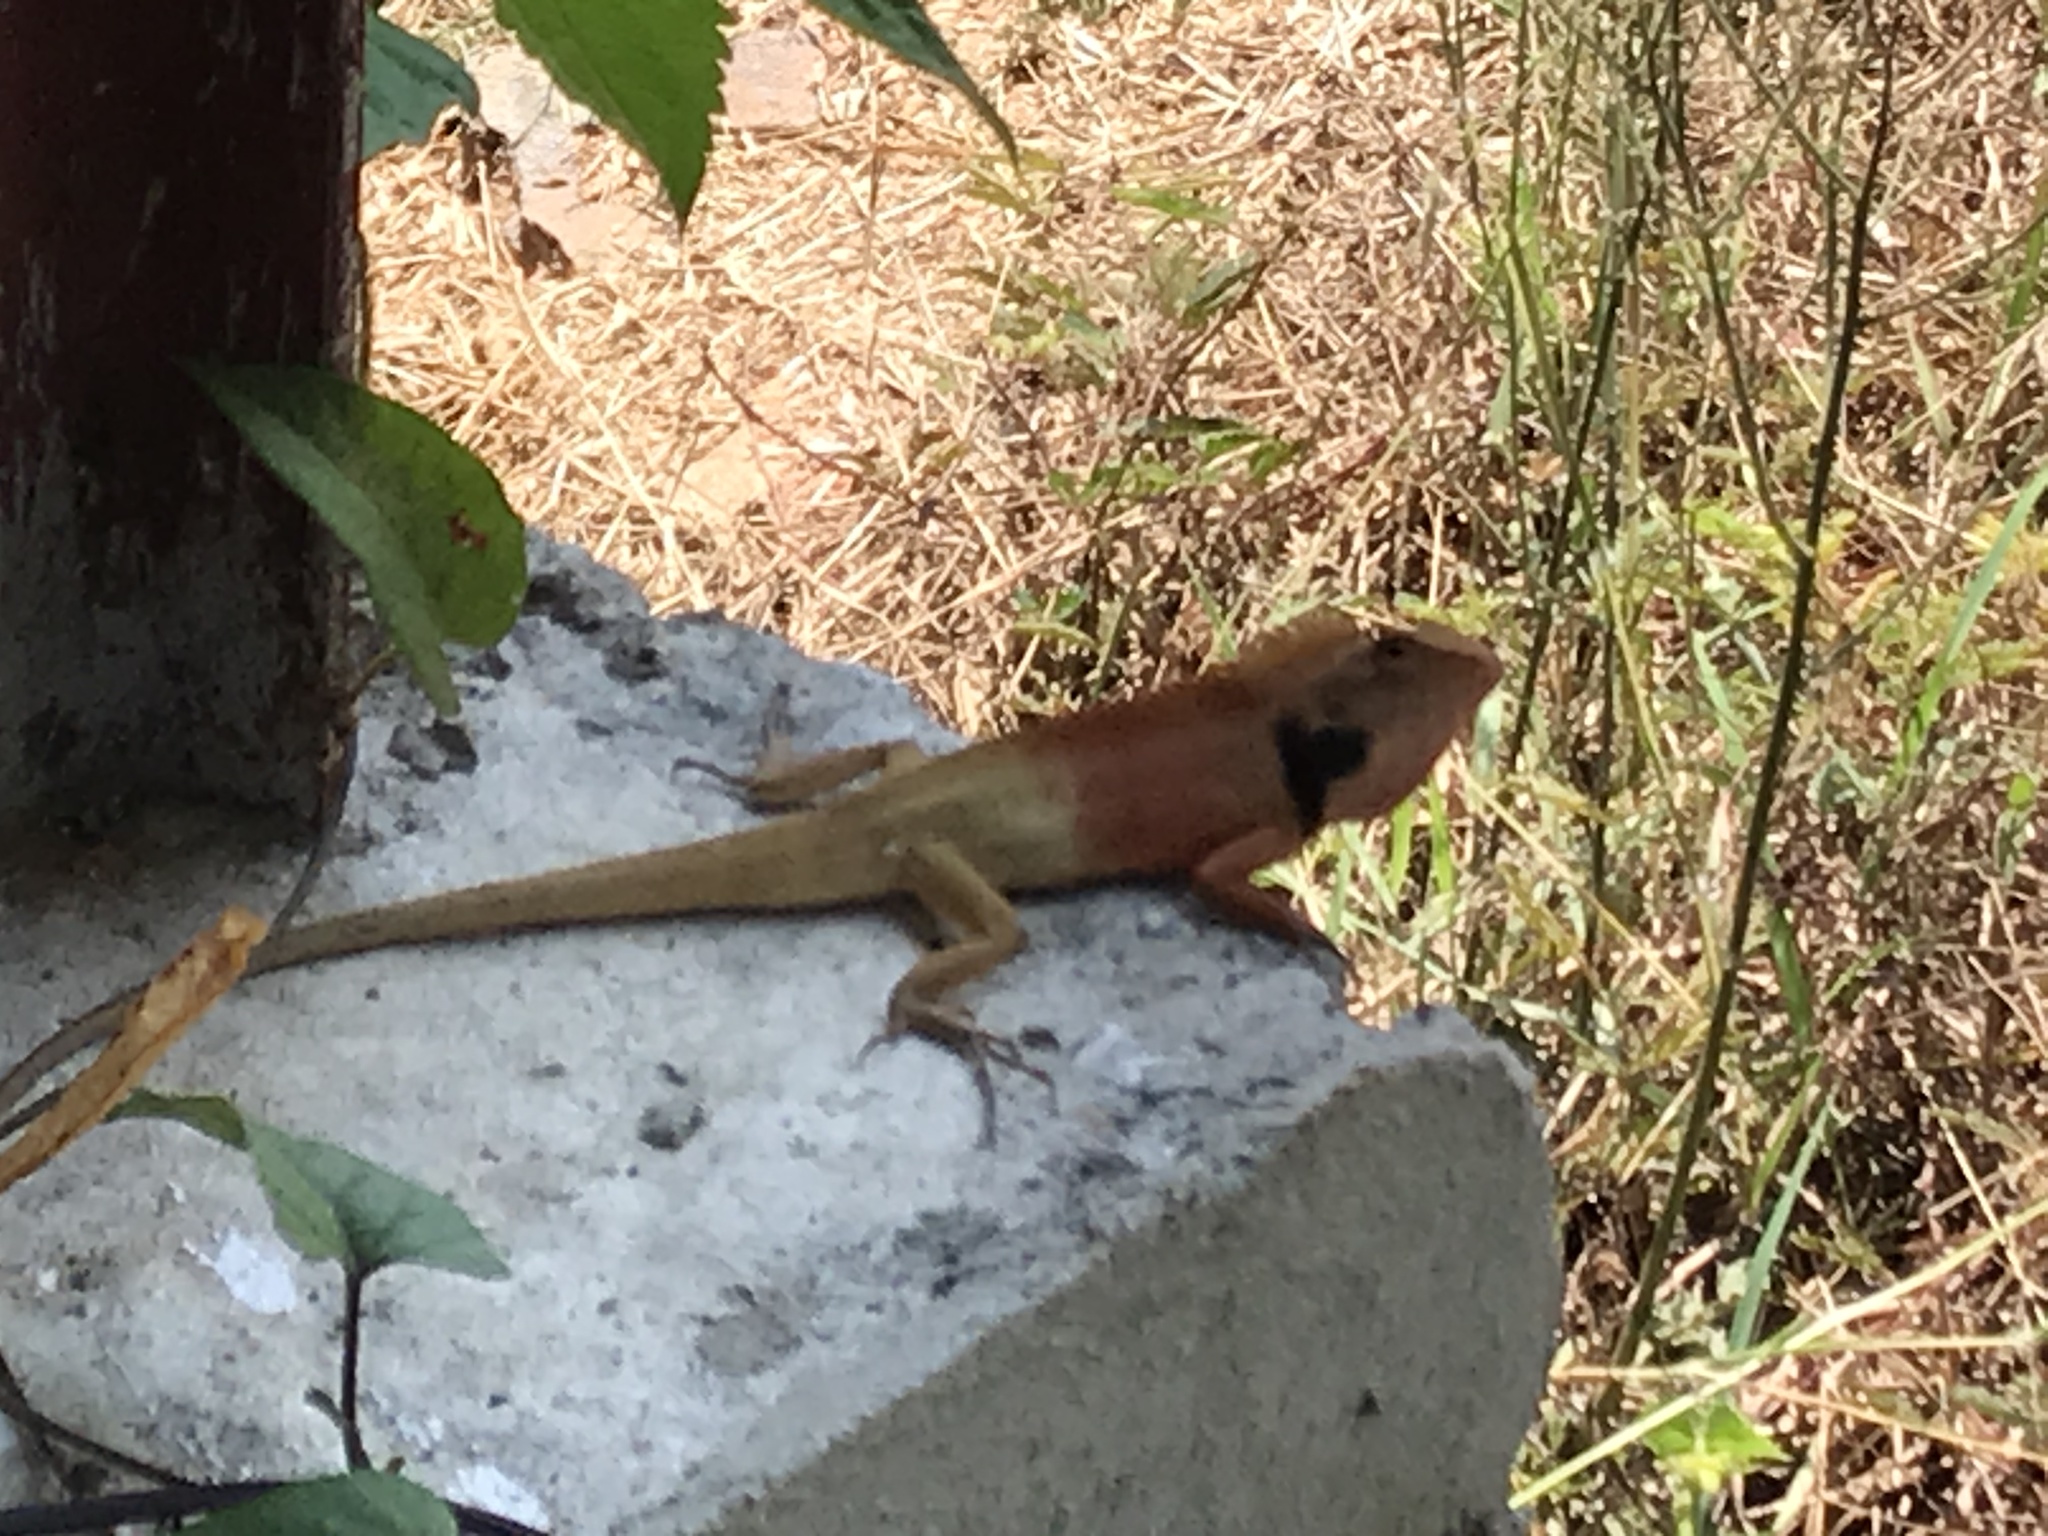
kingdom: Animalia
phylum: Chordata
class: Squamata
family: Agamidae
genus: Calotes
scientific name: Calotes versicolor
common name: Oriental garden lizard
